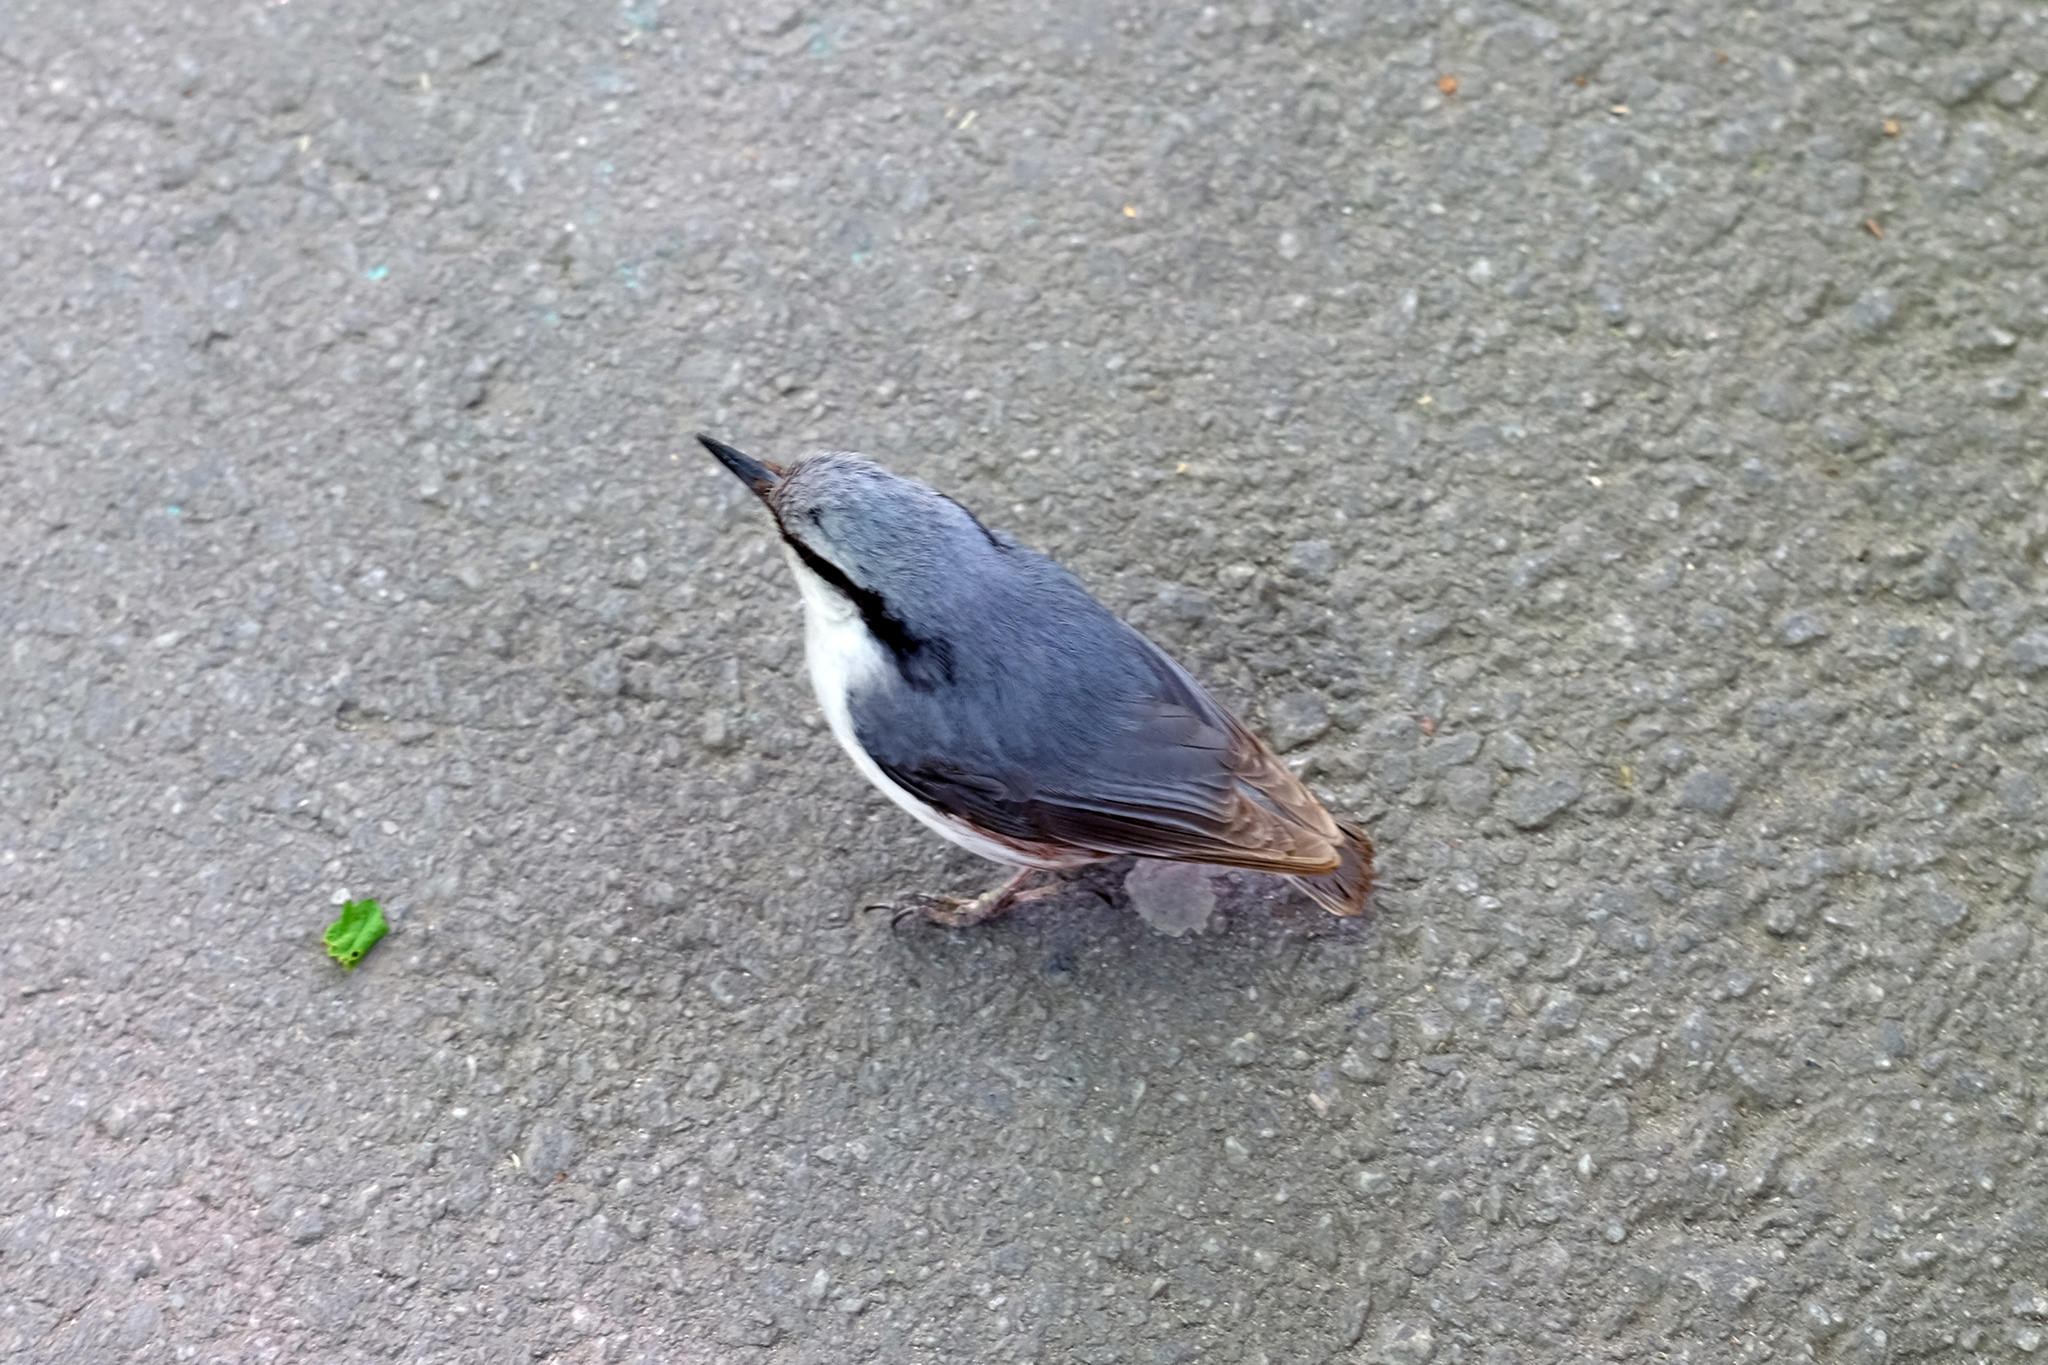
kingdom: Animalia
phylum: Chordata
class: Aves
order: Passeriformes
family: Sittidae
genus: Sitta
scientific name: Sitta europaea
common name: Eurasian nuthatch
